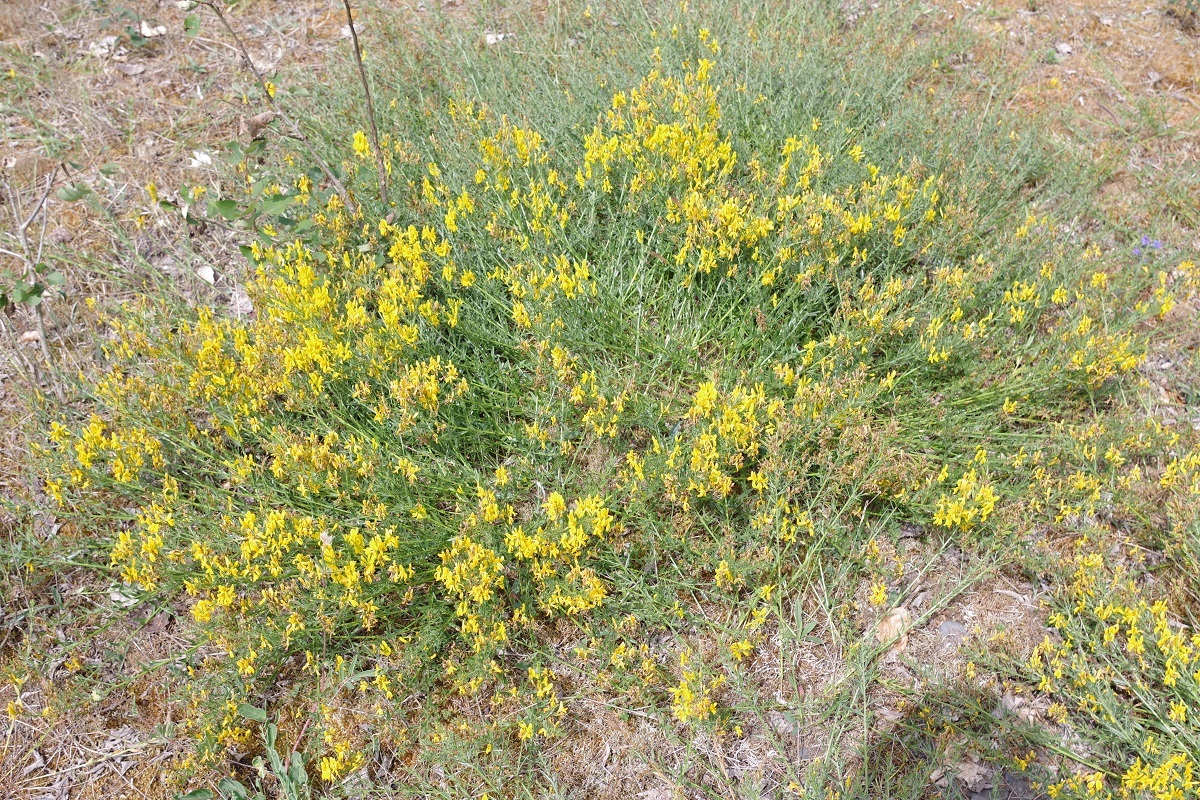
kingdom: Plantae
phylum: Tracheophyta
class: Magnoliopsida
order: Fabales
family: Fabaceae
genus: Genista
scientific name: Genista tinctoria
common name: Dyer's greenweed
